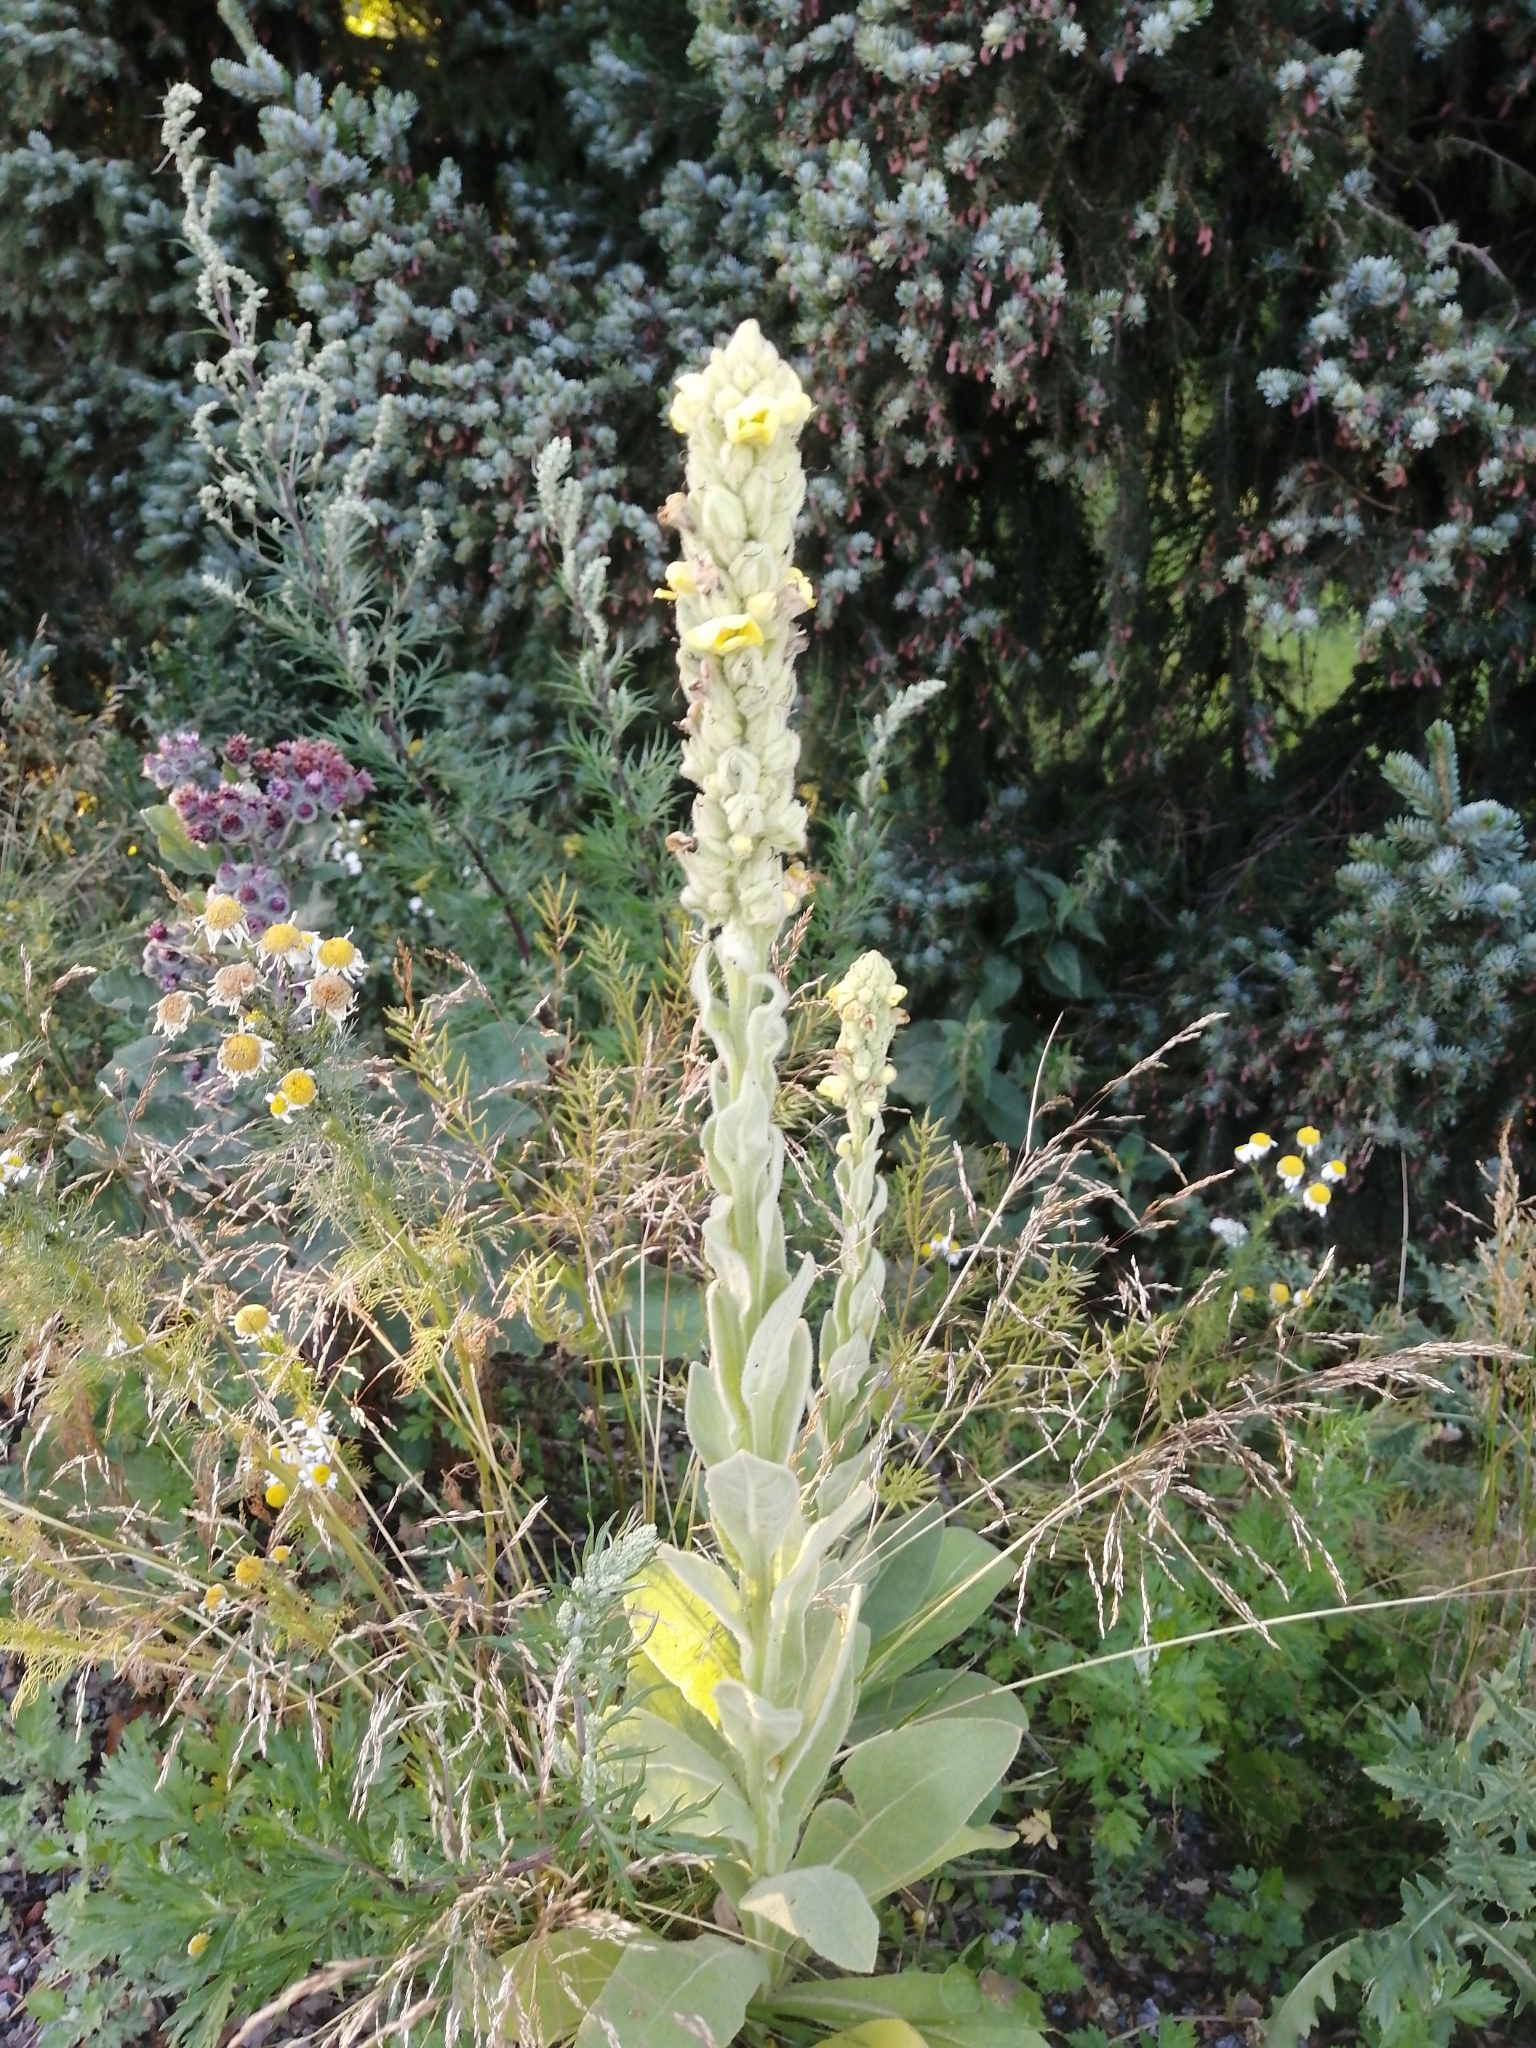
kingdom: Plantae
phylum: Tracheophyta
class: Magnoliopsida
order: Lamiales
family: Scrophulariaceae
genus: Verbascum
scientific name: Verbascum thapsus
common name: Common mullein
